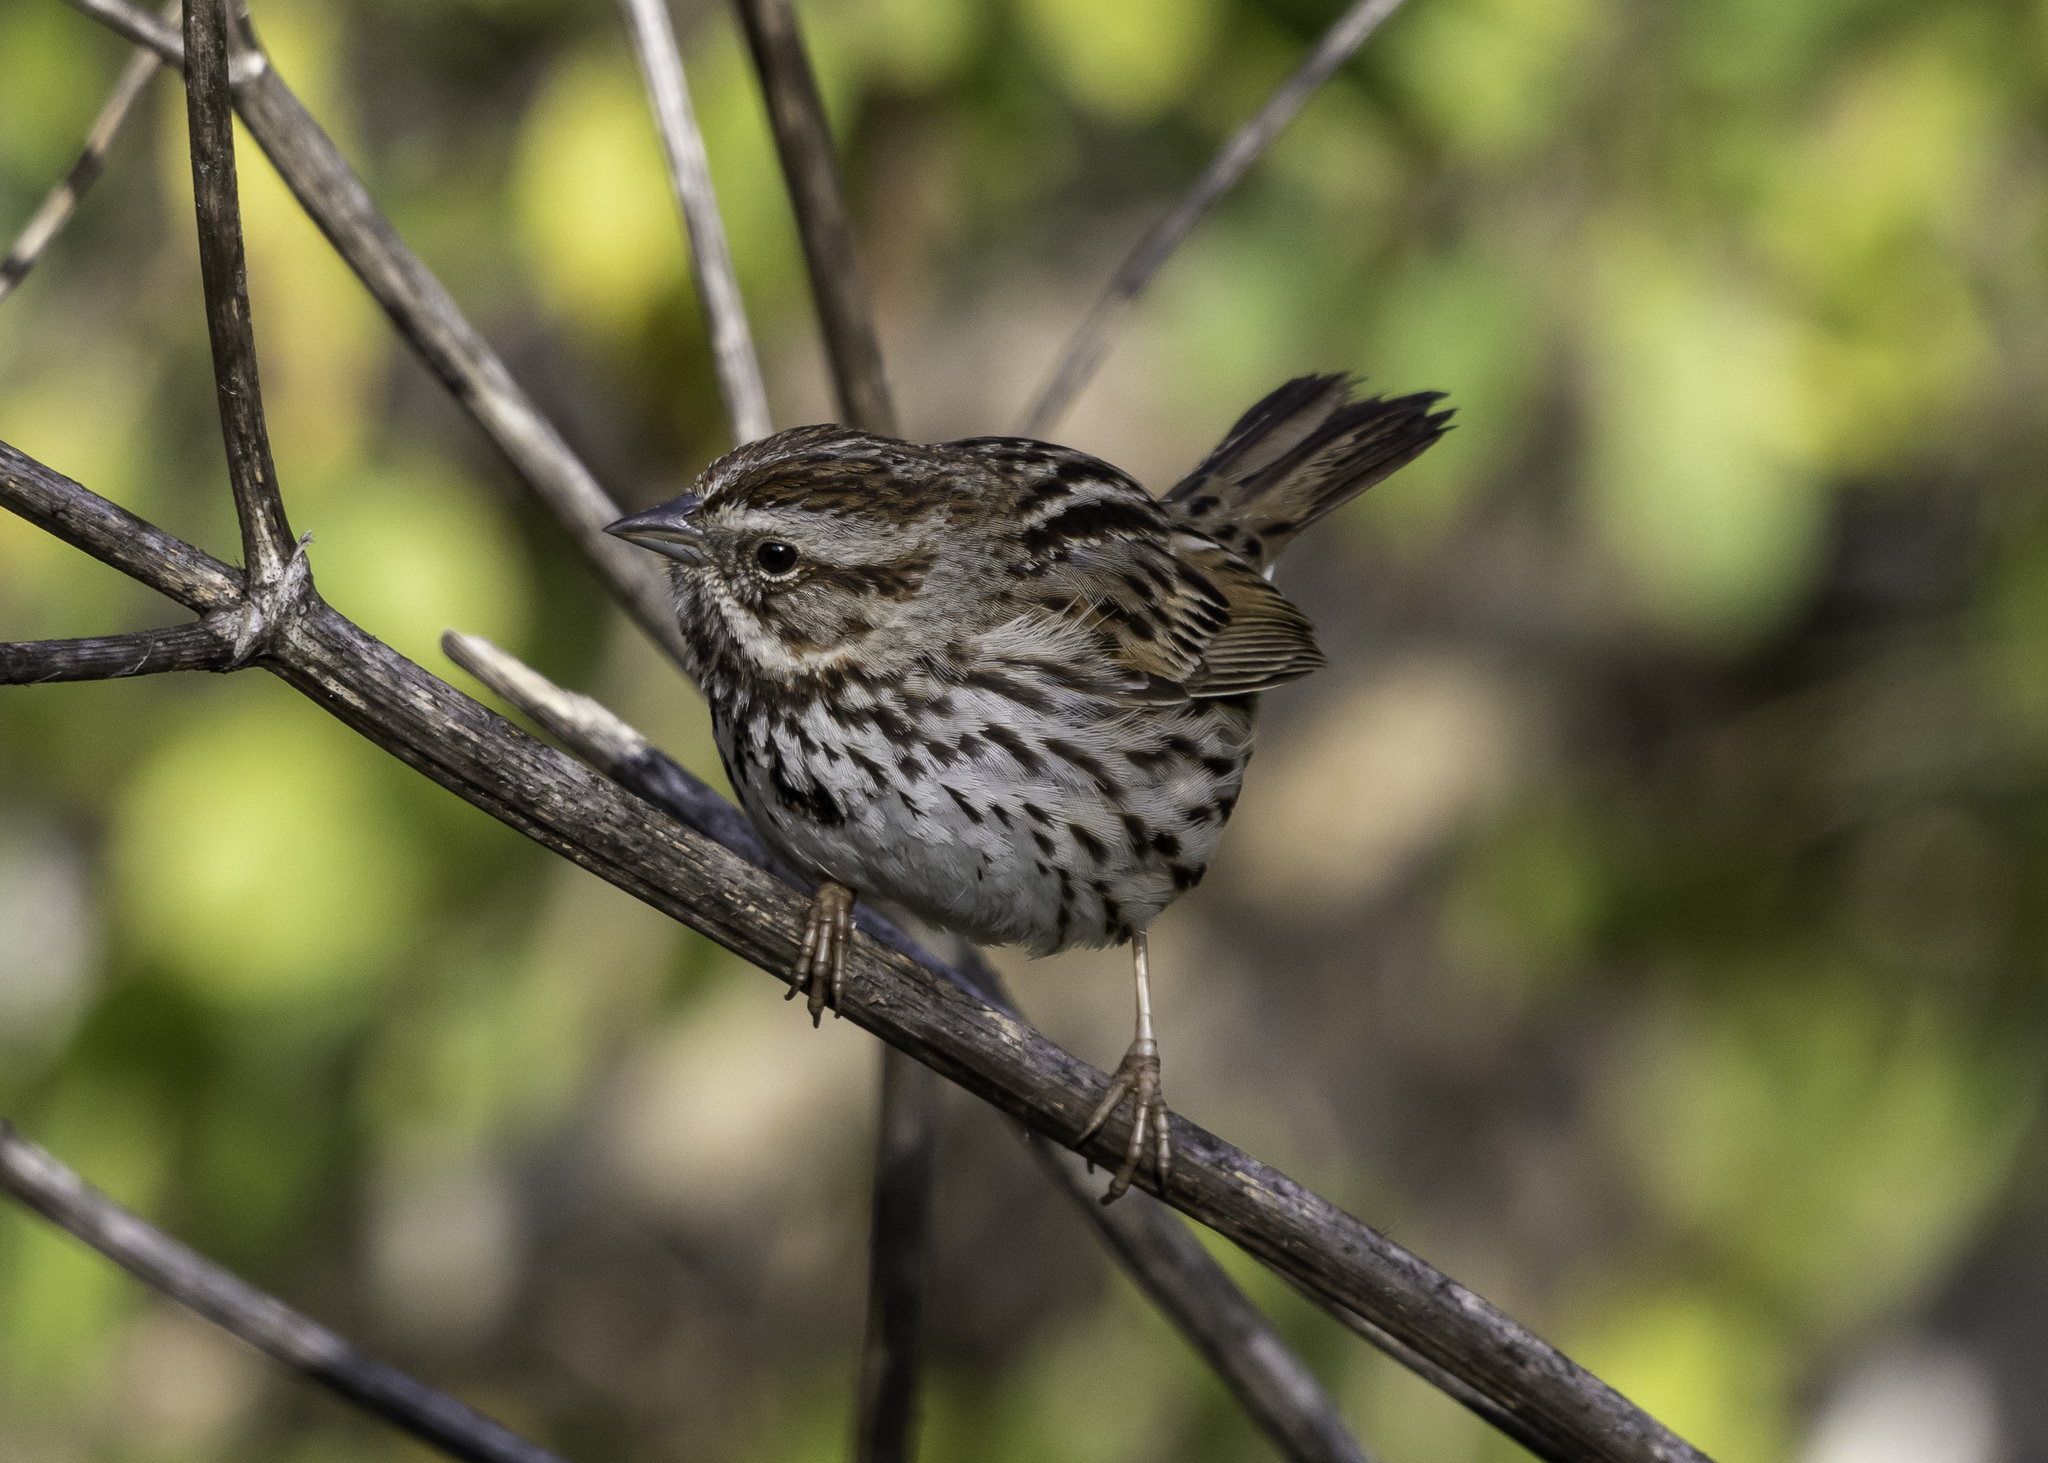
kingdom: Animalia
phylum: Chordata
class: Aves
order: Passeriformes
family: Passerellidae
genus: Melospiza
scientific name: Melospiza melodia
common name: Song sparrow
